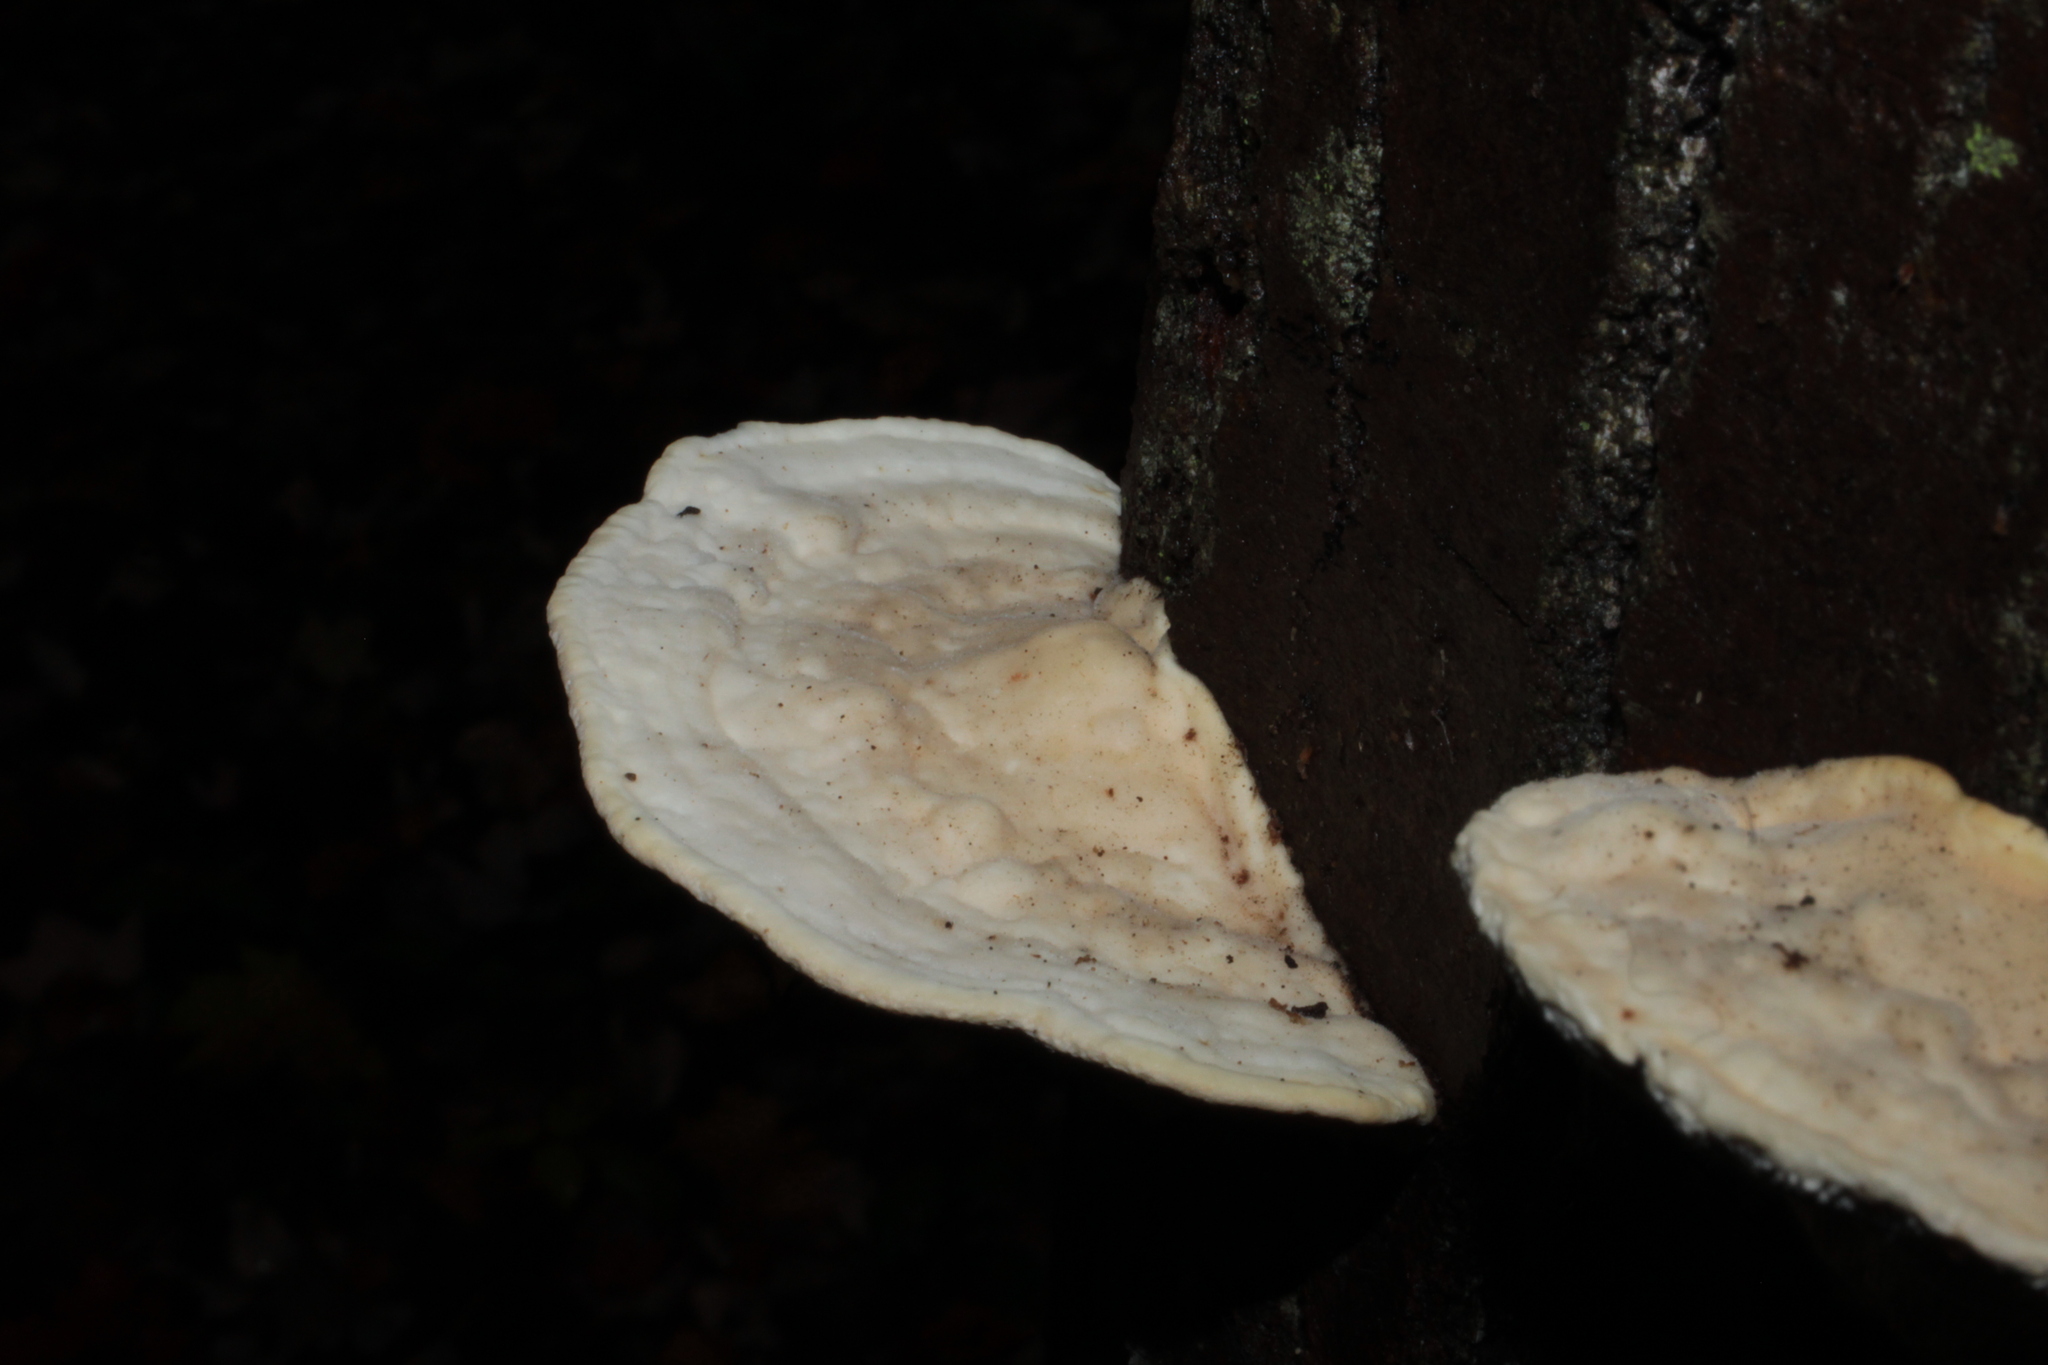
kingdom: Fungi
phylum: Basidiomycota
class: Agaricomycetes
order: Polyporales
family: Polyporaceae
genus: Trametes
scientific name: Trametes gibbosa
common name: Lumpy bracket
